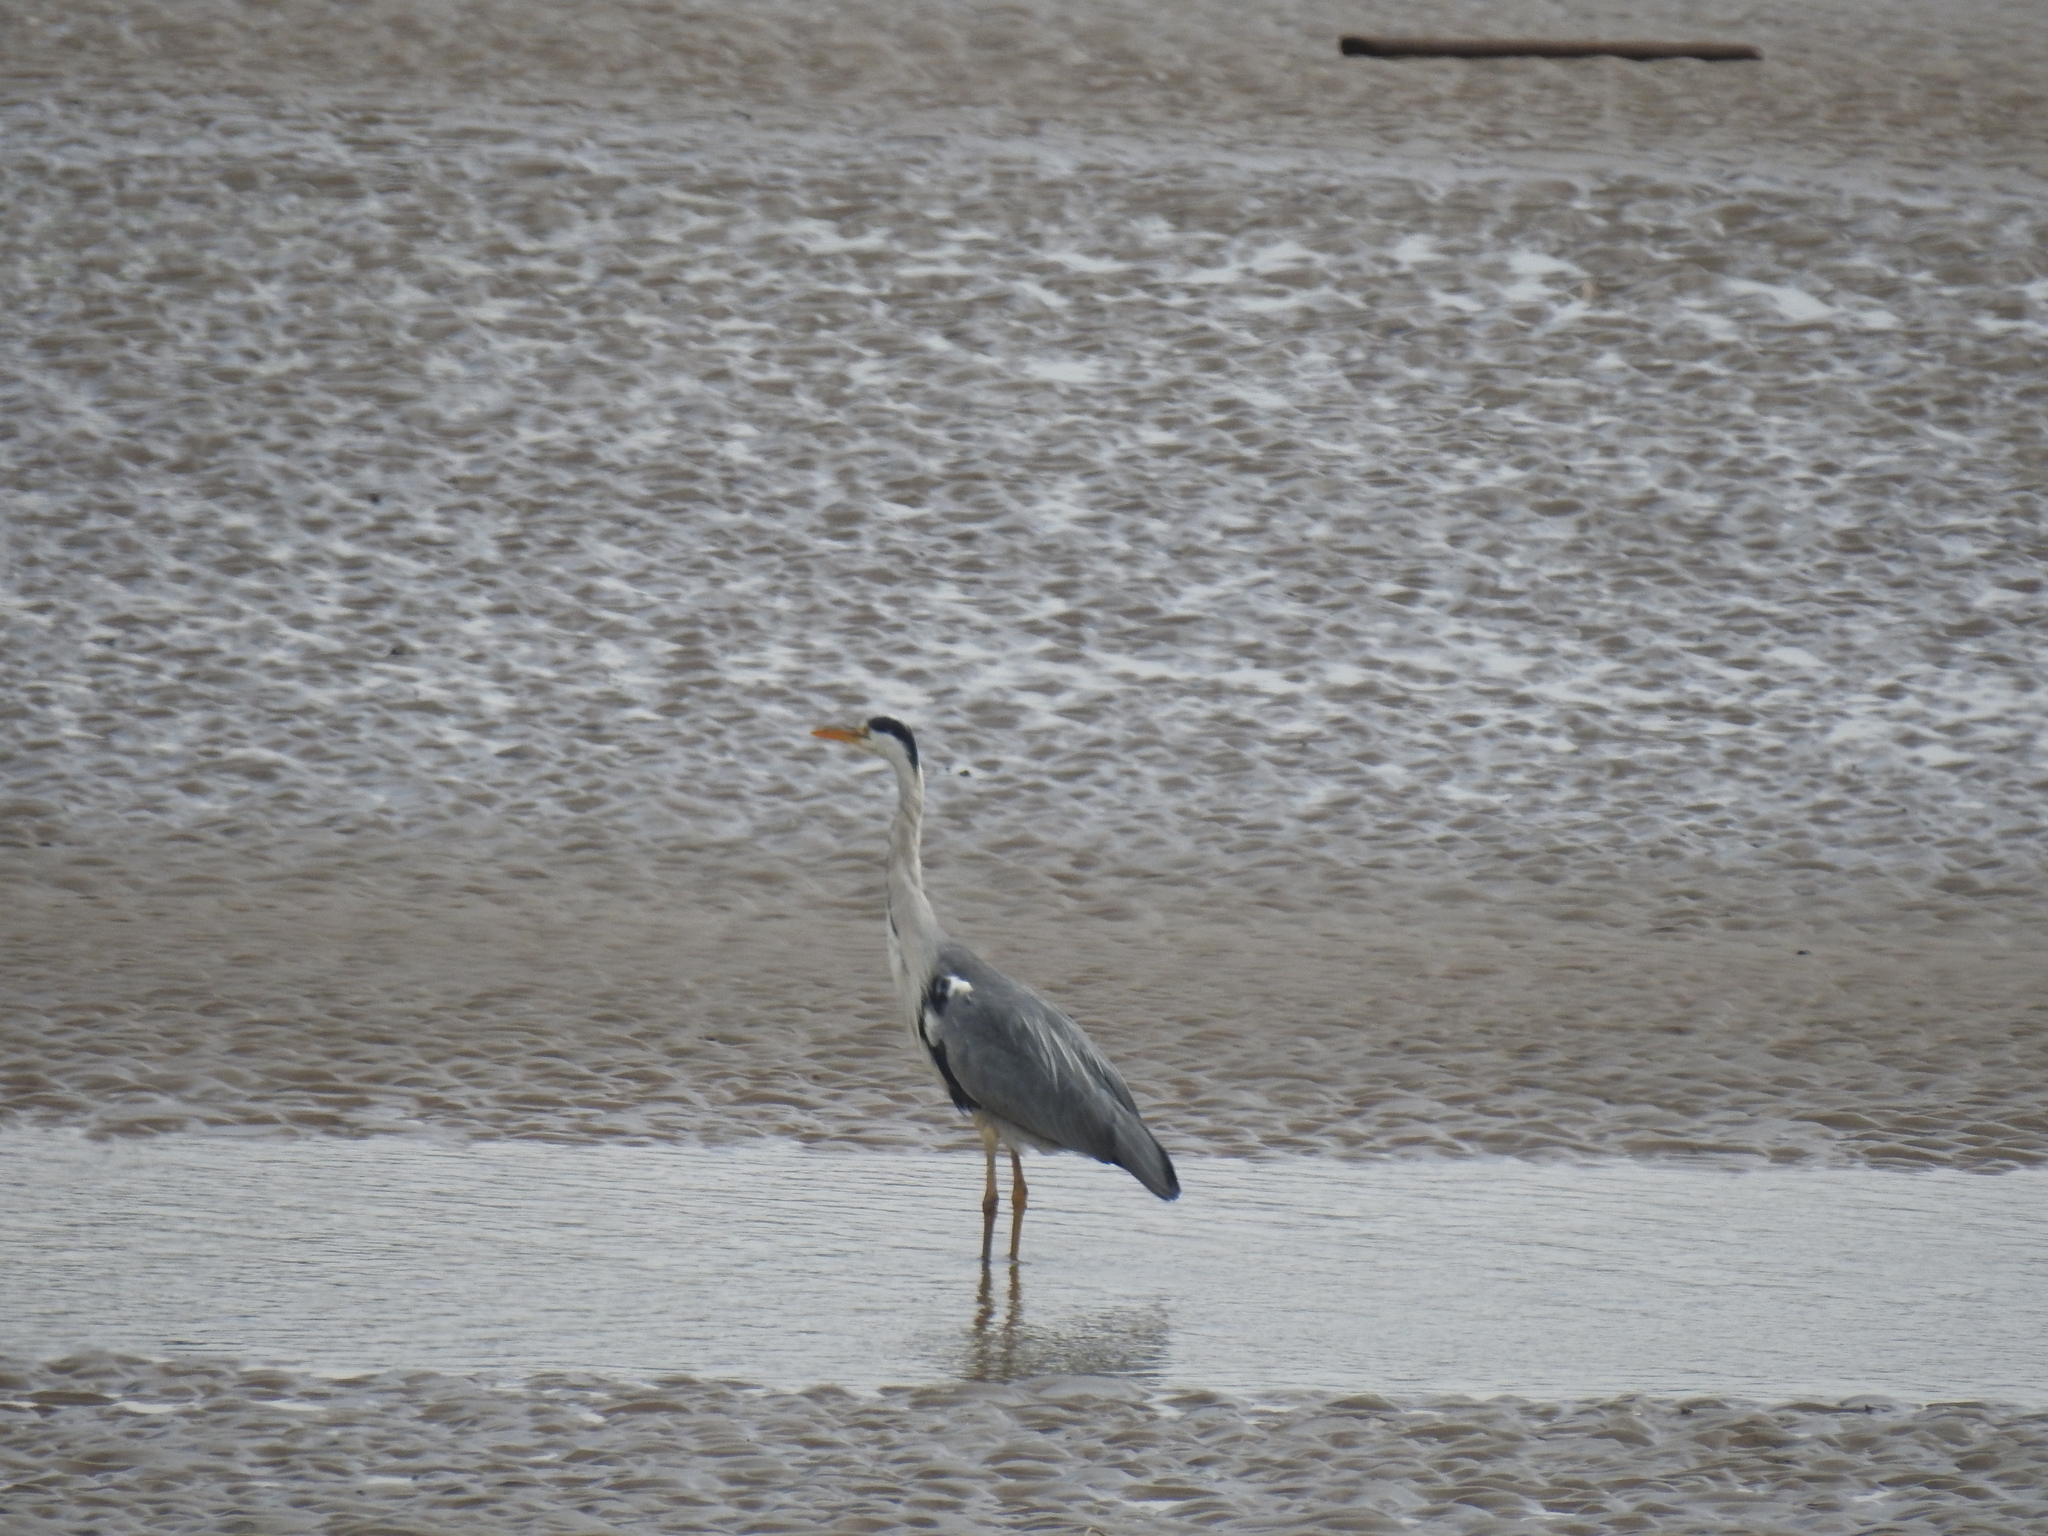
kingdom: Animalia
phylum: Chordata
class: Aves
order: Pelecaniformes
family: Ardeidae
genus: Ardea
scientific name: Ardea cinerea
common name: Grey heron
